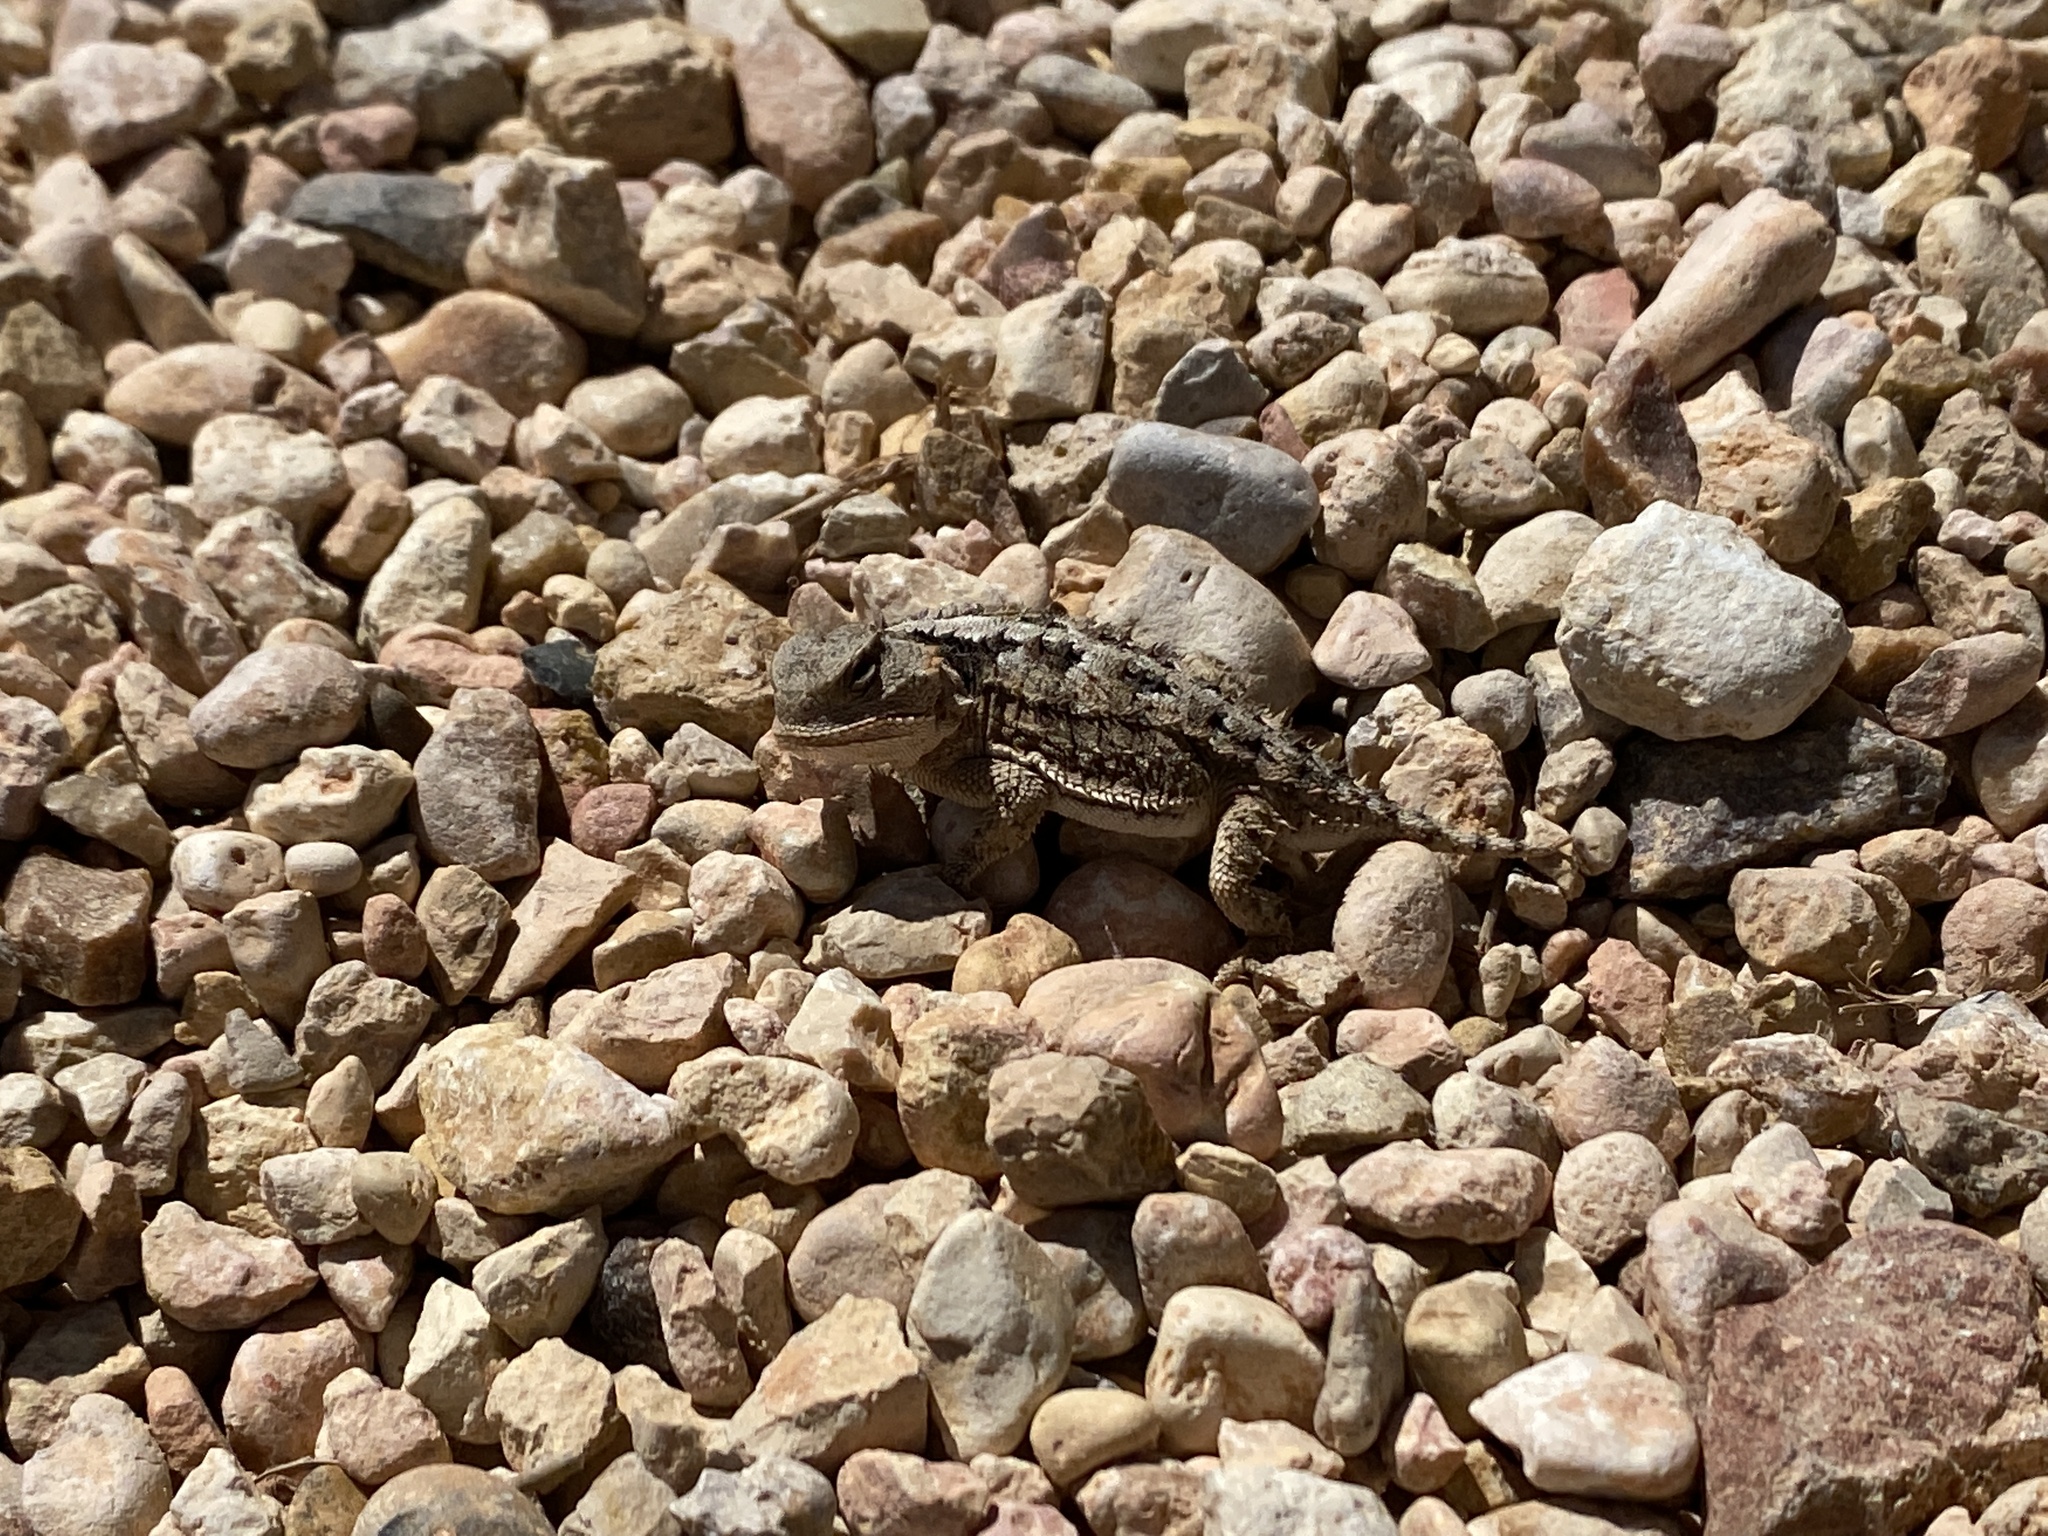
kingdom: Animalia
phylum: Chordata
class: Squamata
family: Phrynosomatidae
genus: Phrynosoma
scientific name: Phrynosoma hernandesi
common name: Greater short-horned lizard
